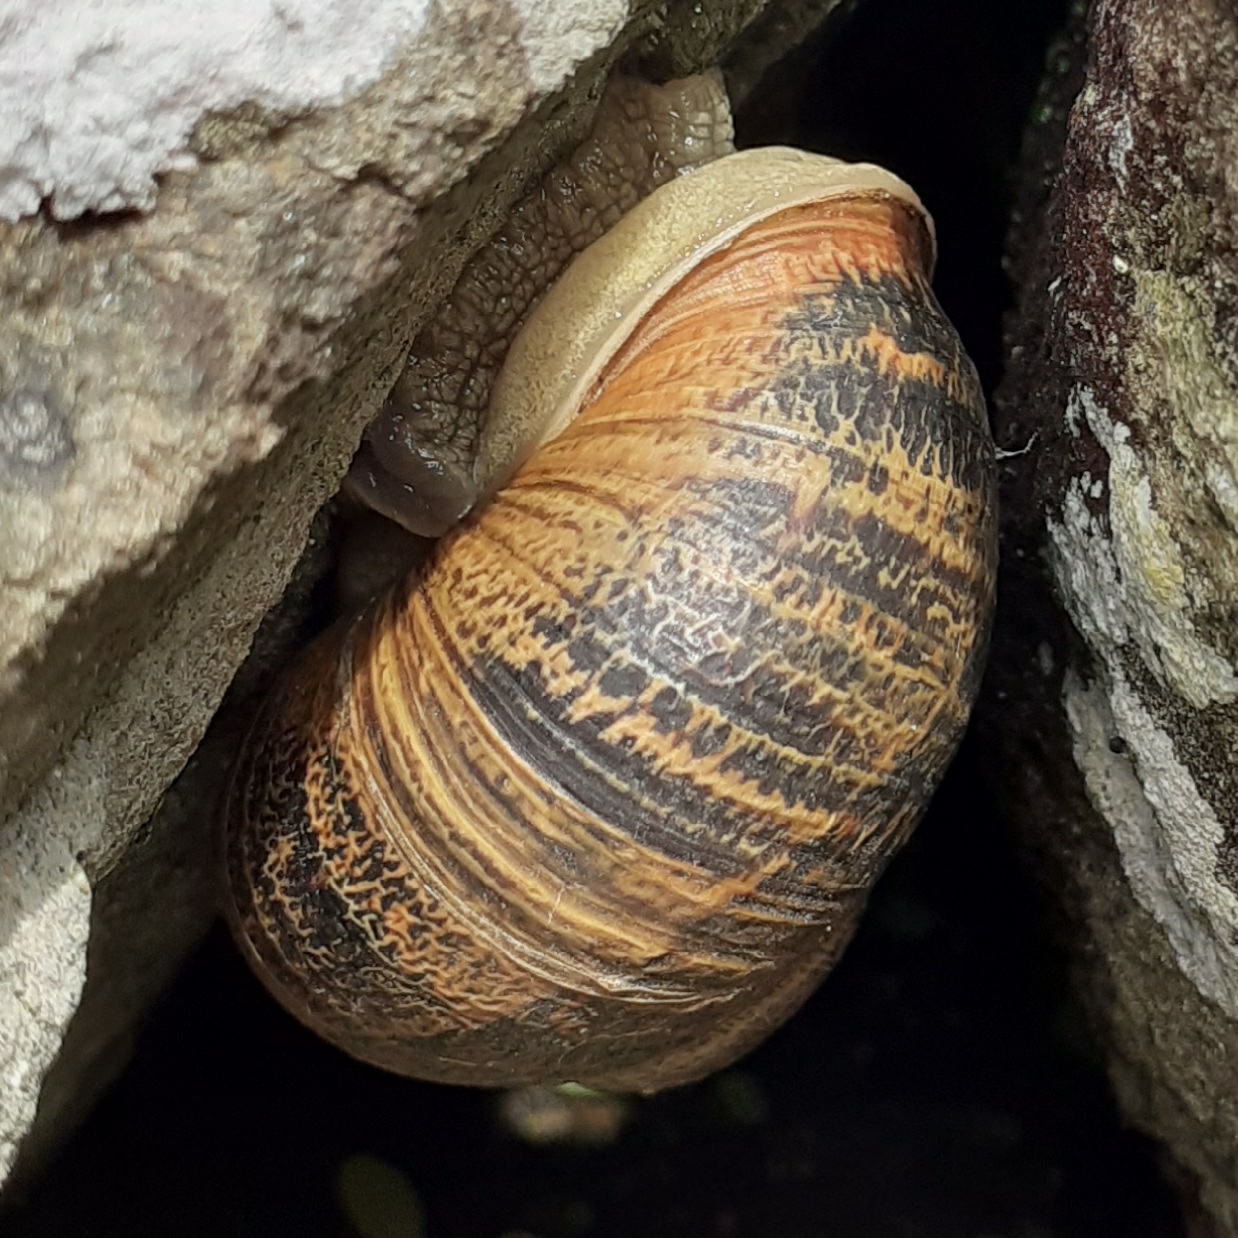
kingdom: Animalia
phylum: Mollusca
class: Gastropoda
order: Stylommatophora
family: Helicidae
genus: Cornu
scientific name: Cornu aspersum
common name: Brown garden snail
